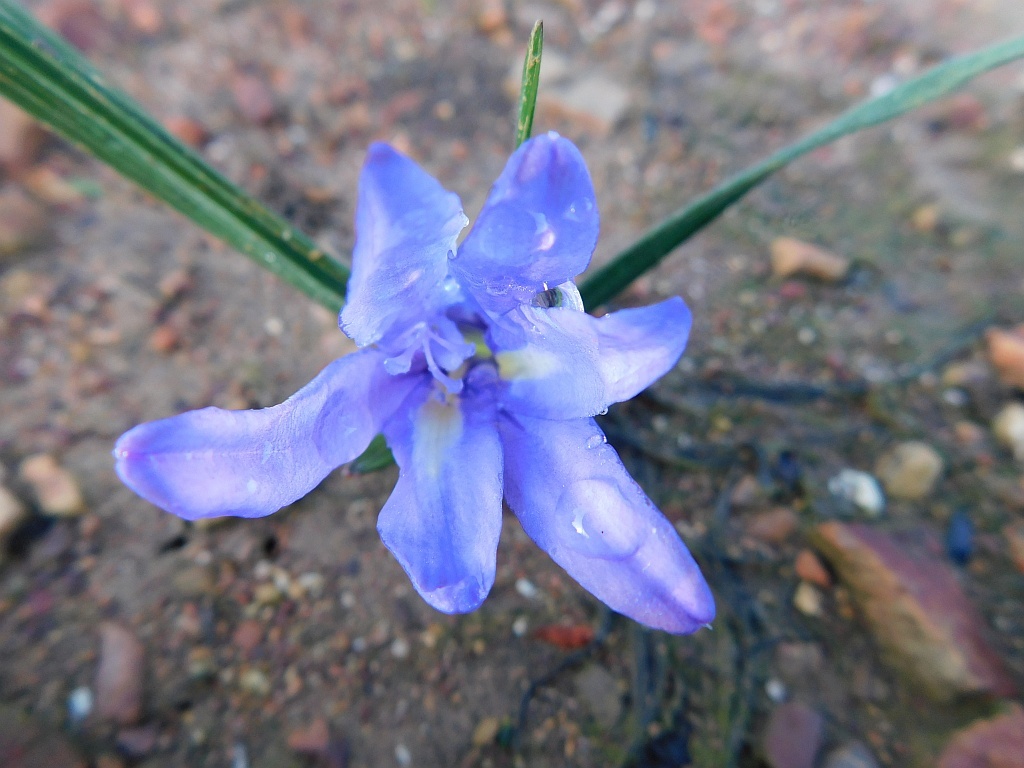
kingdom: Plantae
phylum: Tracheophyta
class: Liliopsida
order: Asparagales
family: Iridaceae
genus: Babiana
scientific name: Babiana ambigua
